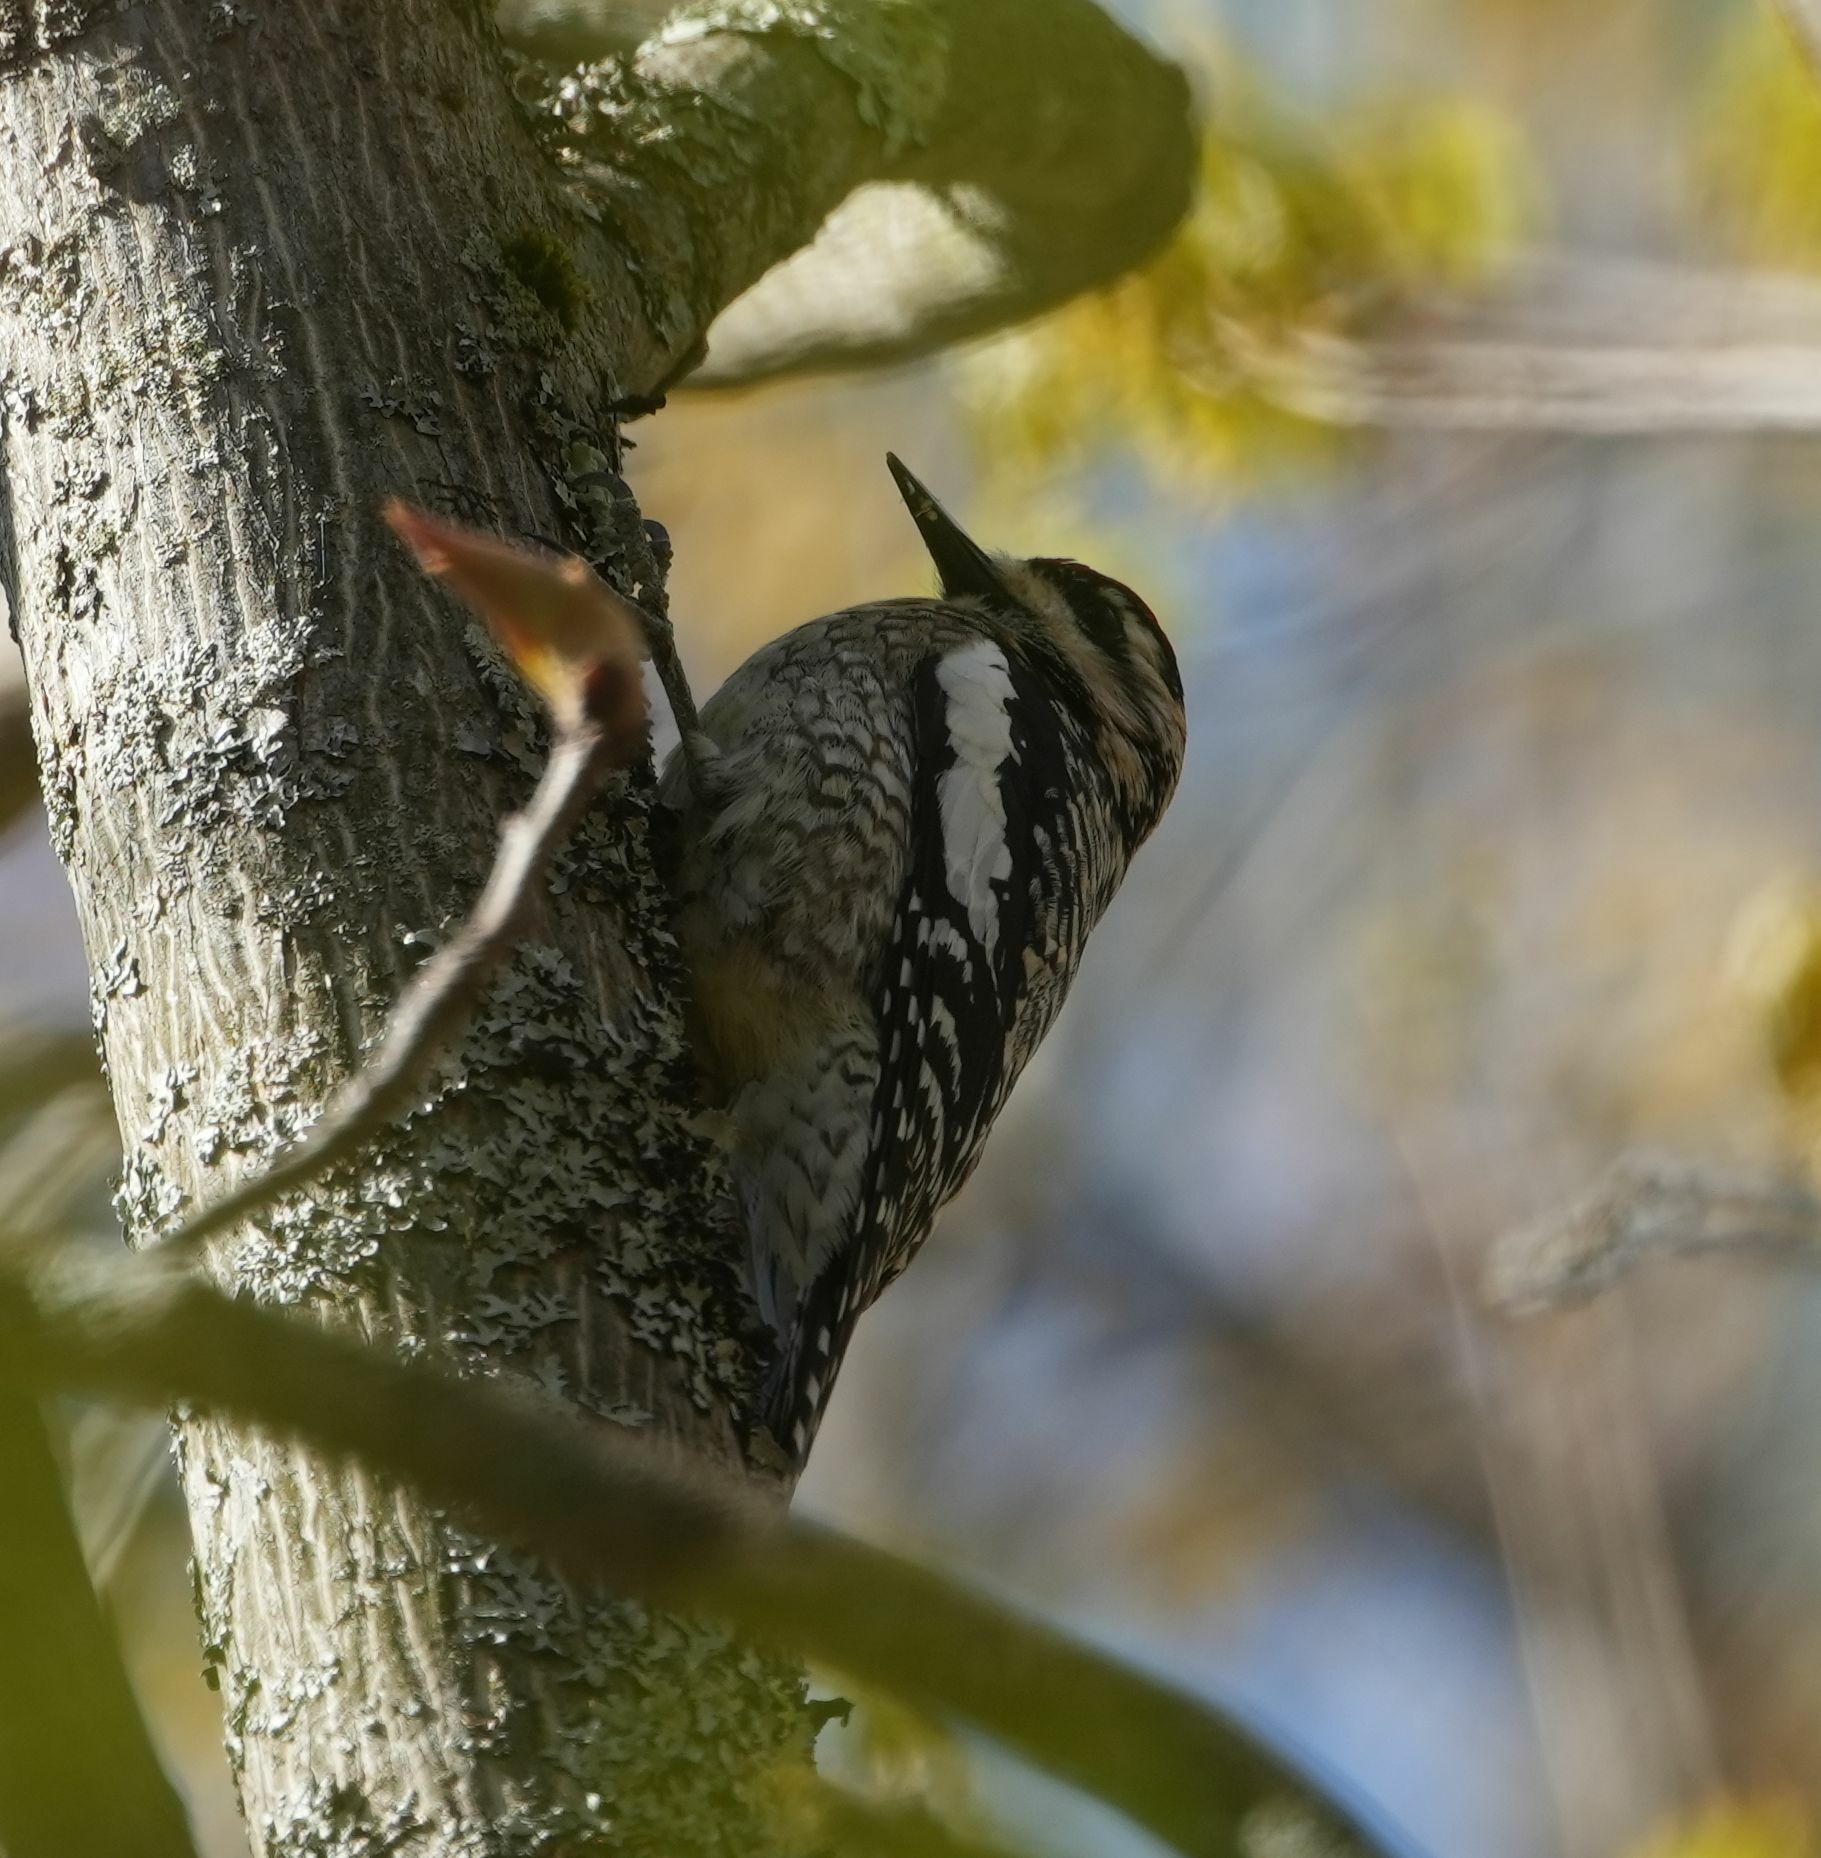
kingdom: Animalia
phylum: Chordata
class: Aves
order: Piciformes
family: Picidae
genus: Sphyrapicus
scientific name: Sphyrapicus varius
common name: Yellow-bellied sapsucker
